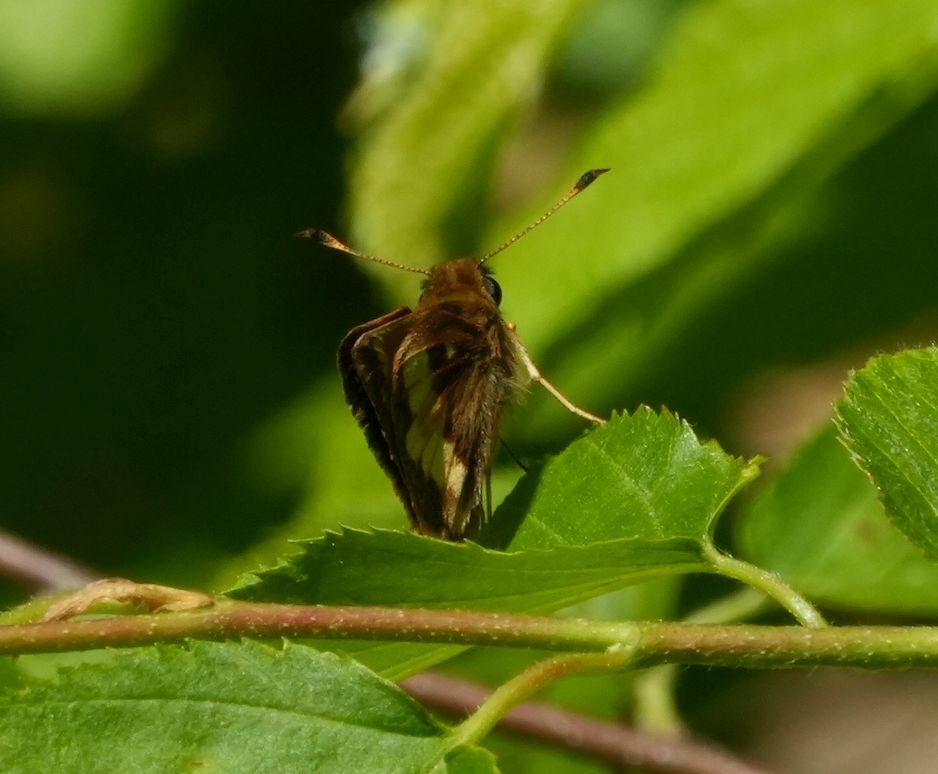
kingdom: Animalia
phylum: Arthropoda
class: Insecta
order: Lepidoptera
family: Hesperiidae
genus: Lon
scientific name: Lon hobomok
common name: Hobomok skipper
